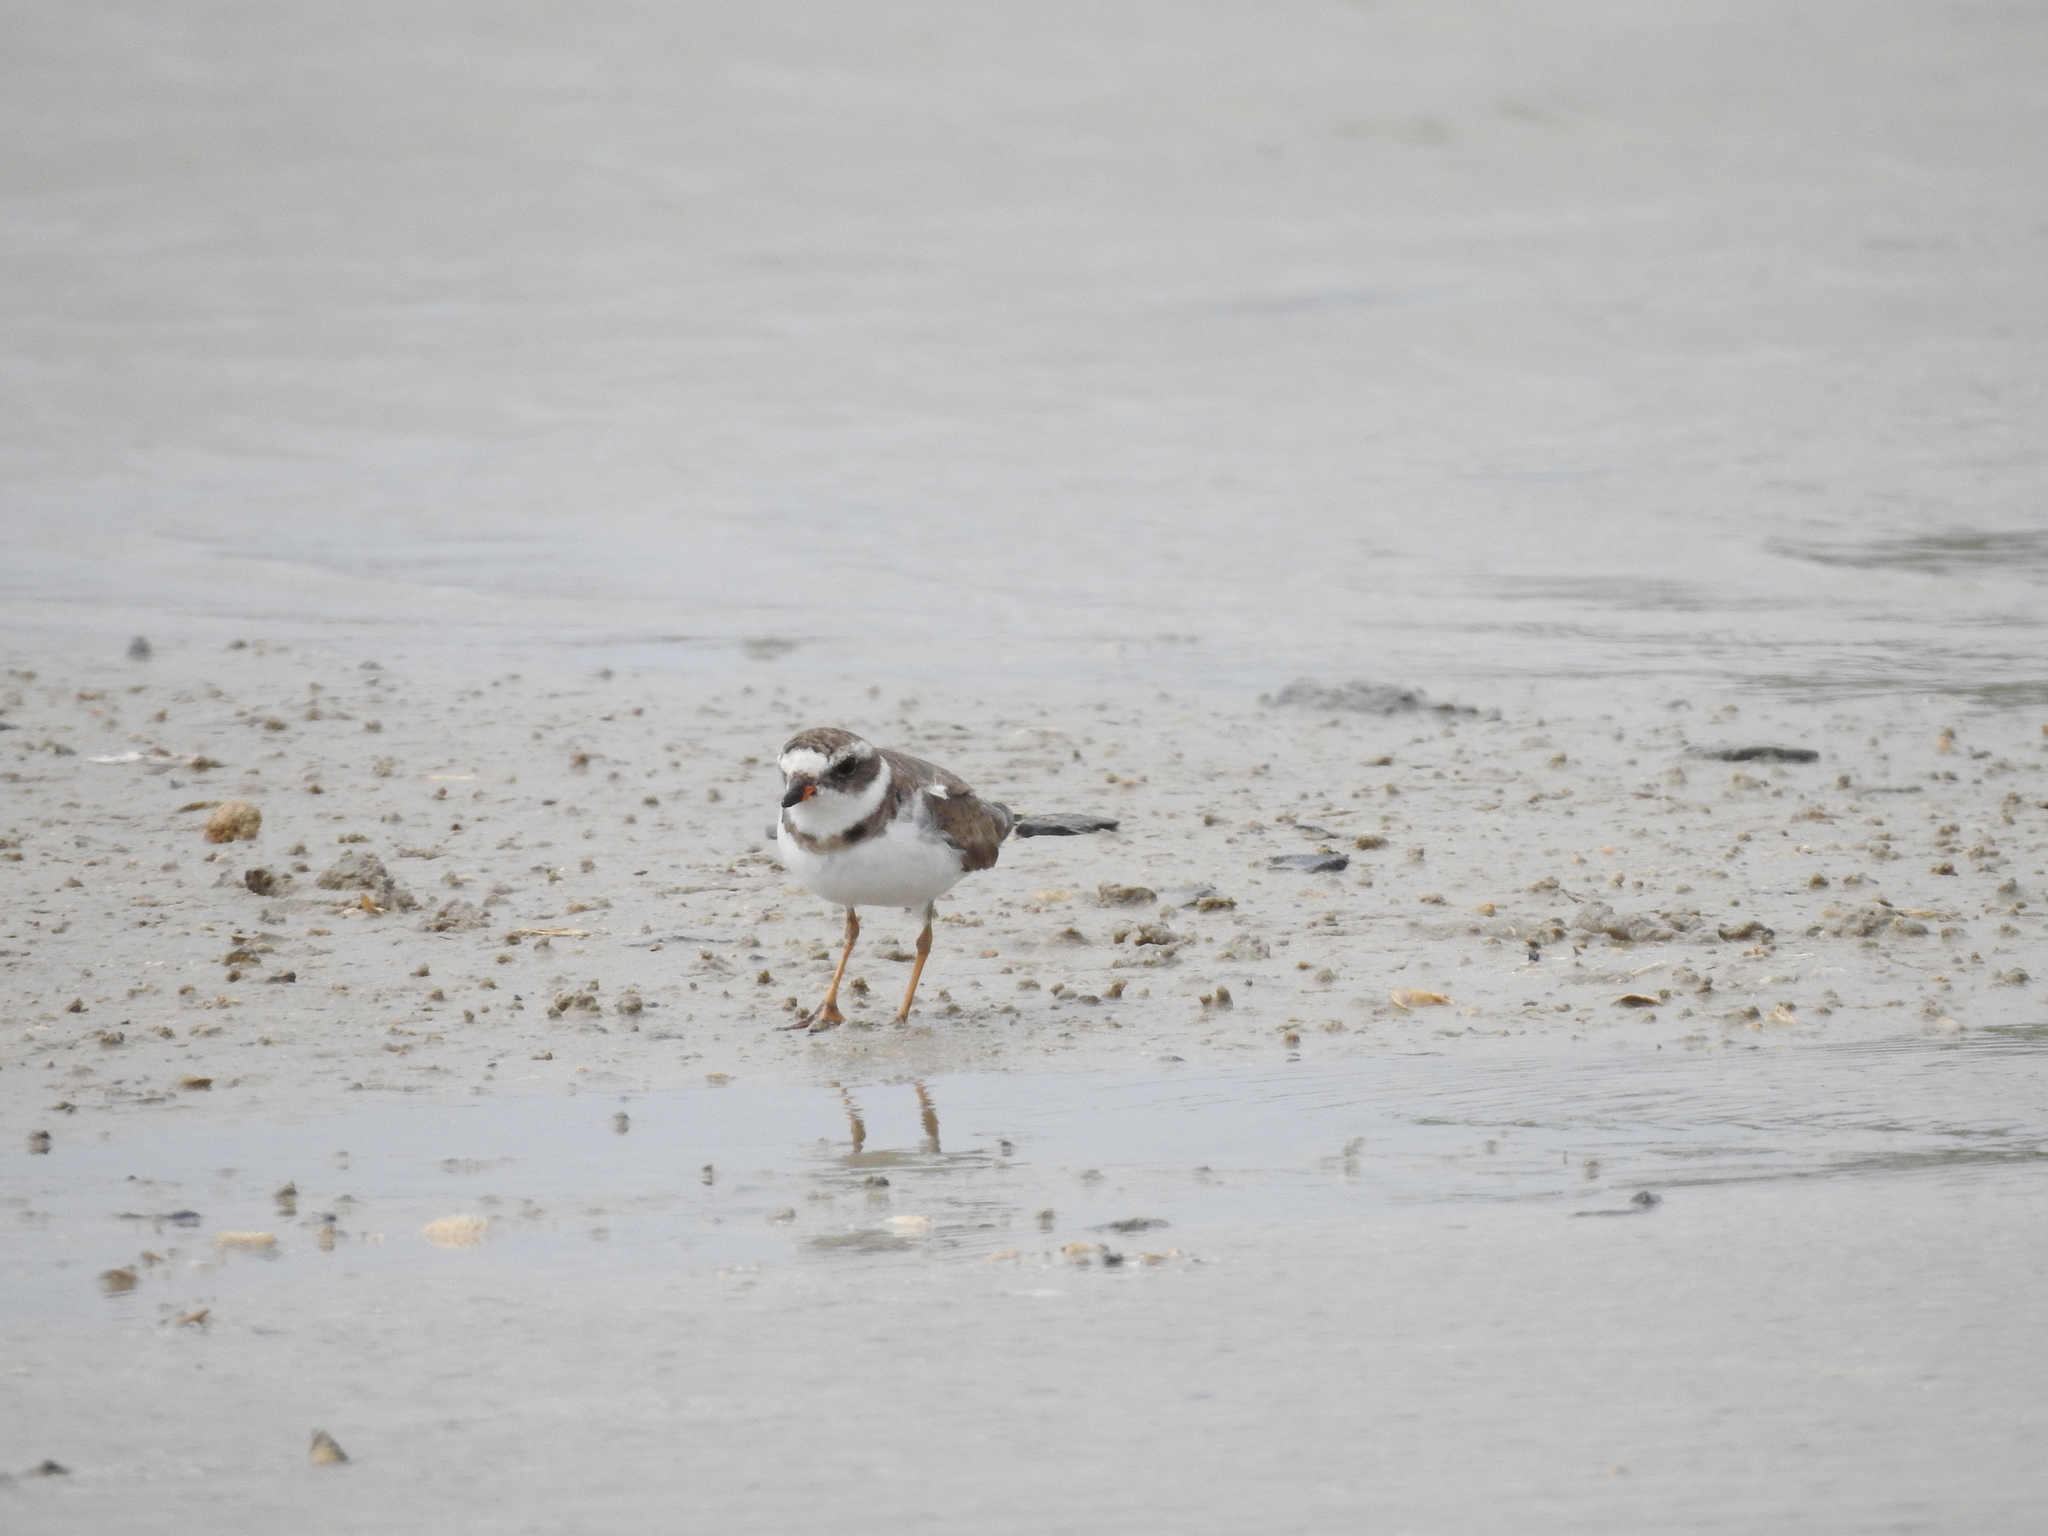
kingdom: Animalia
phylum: Chordata
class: Aves
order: Charadriiformes
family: Charadriidae
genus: Charadrius
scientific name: Charadrius semipalmatus
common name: Semipalmated plover
